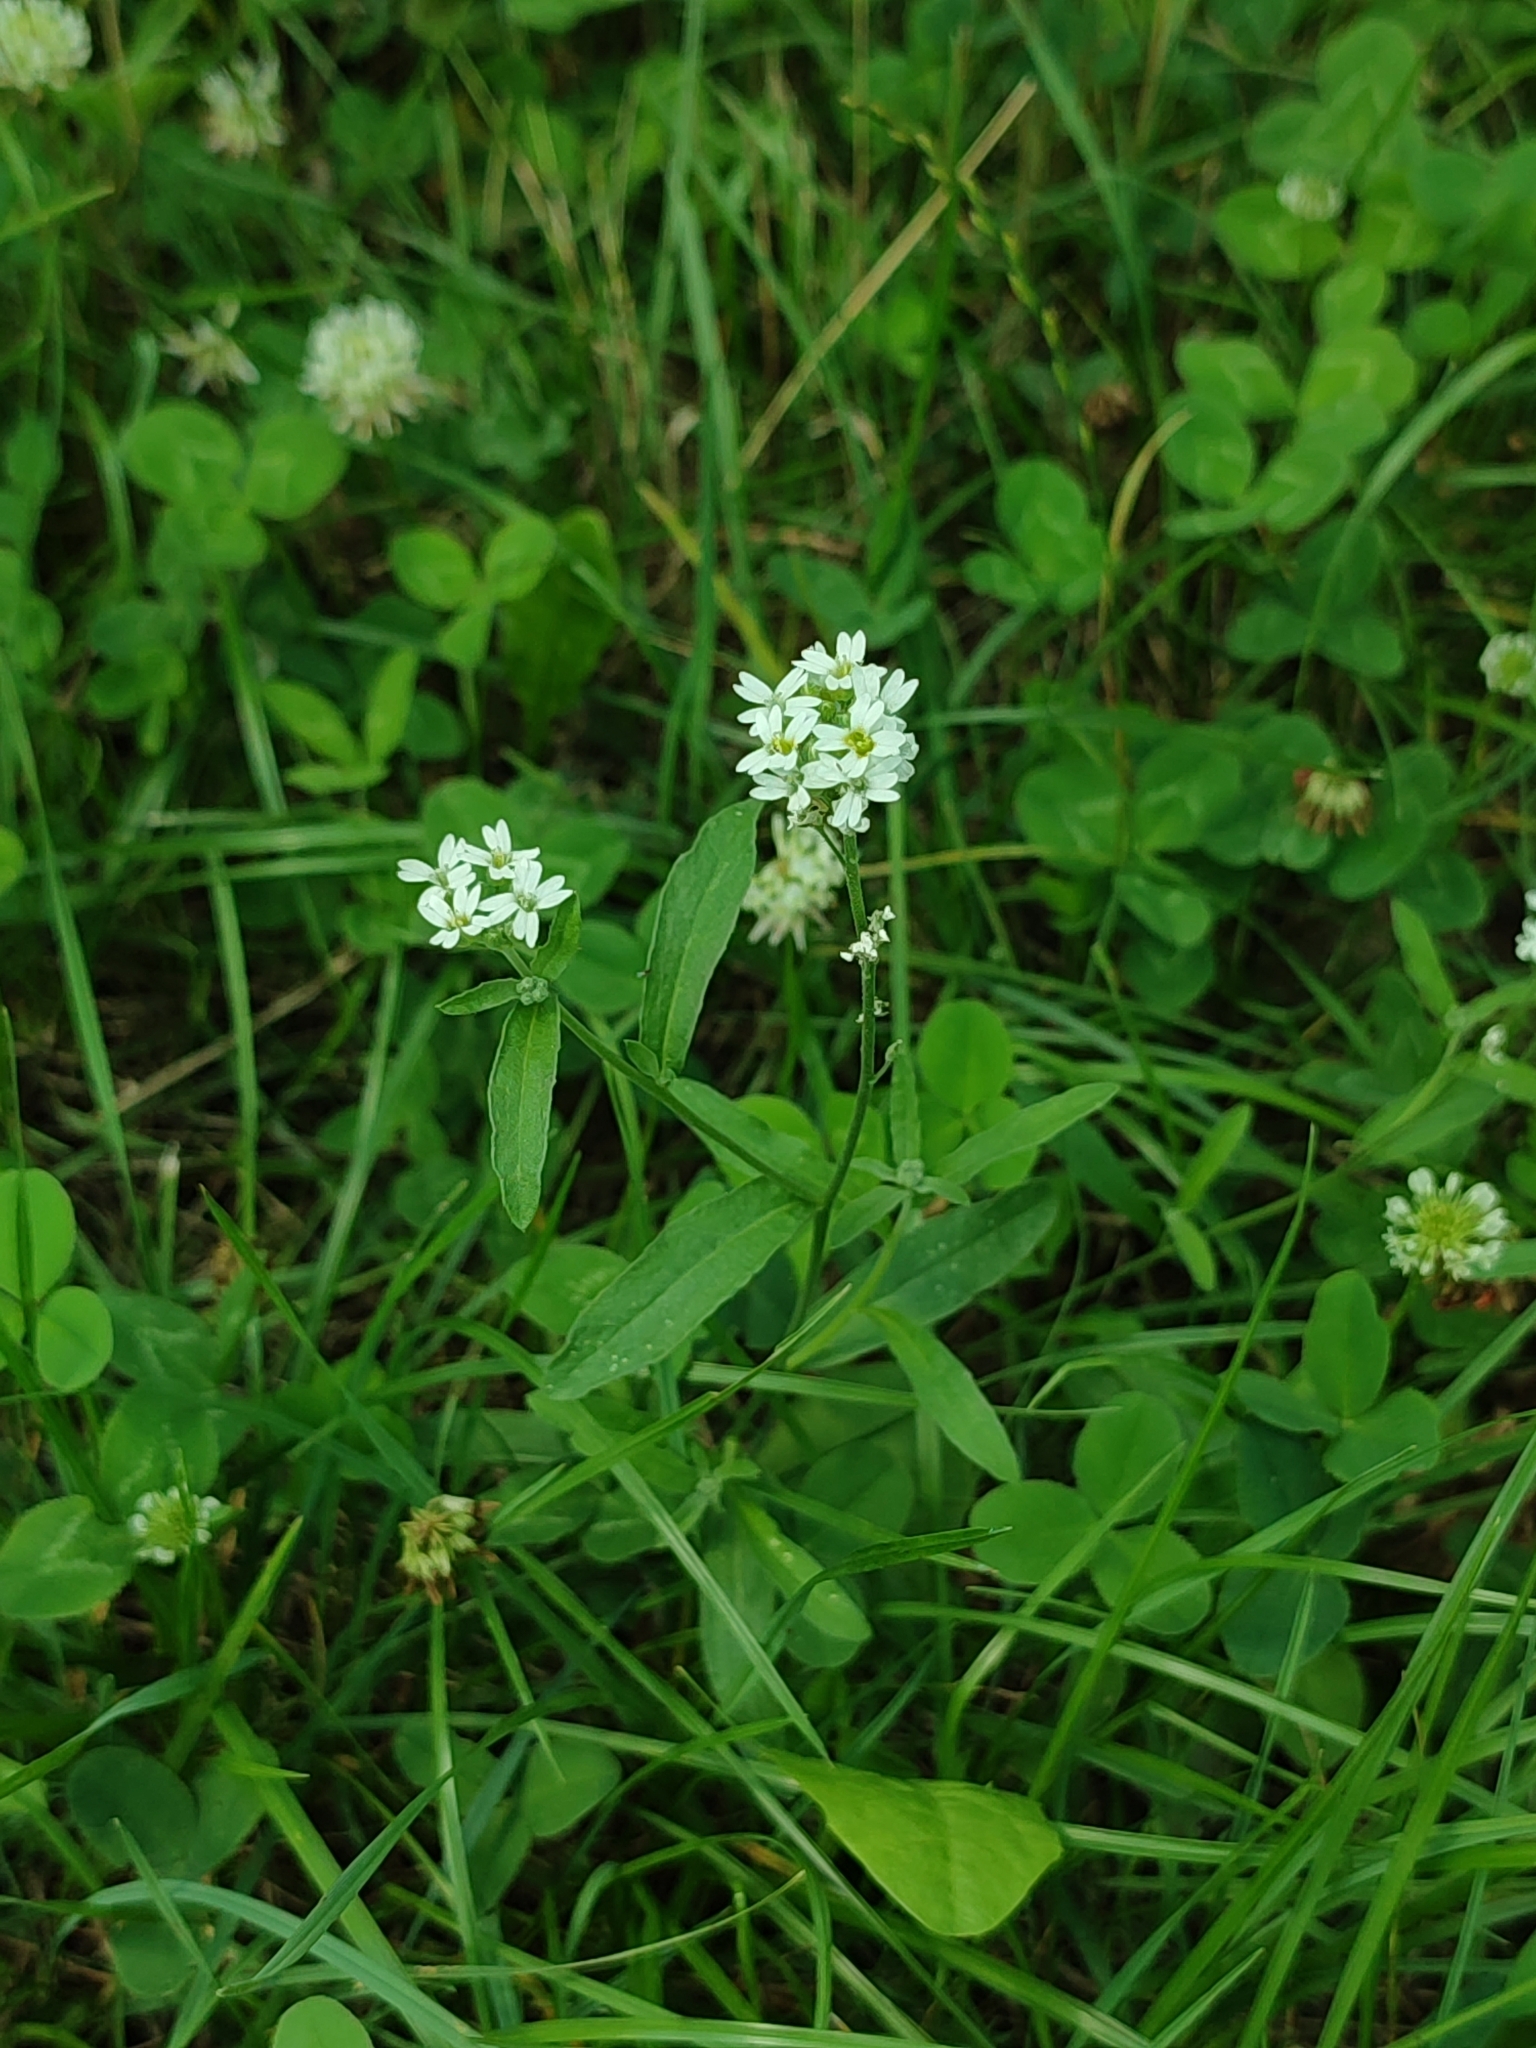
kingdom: Plantae
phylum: Tracheophyta
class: Magnoliopsida
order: Brassicales
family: Brassicaceae
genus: Berteroa
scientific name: Berteroa incana
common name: Hoary alison
